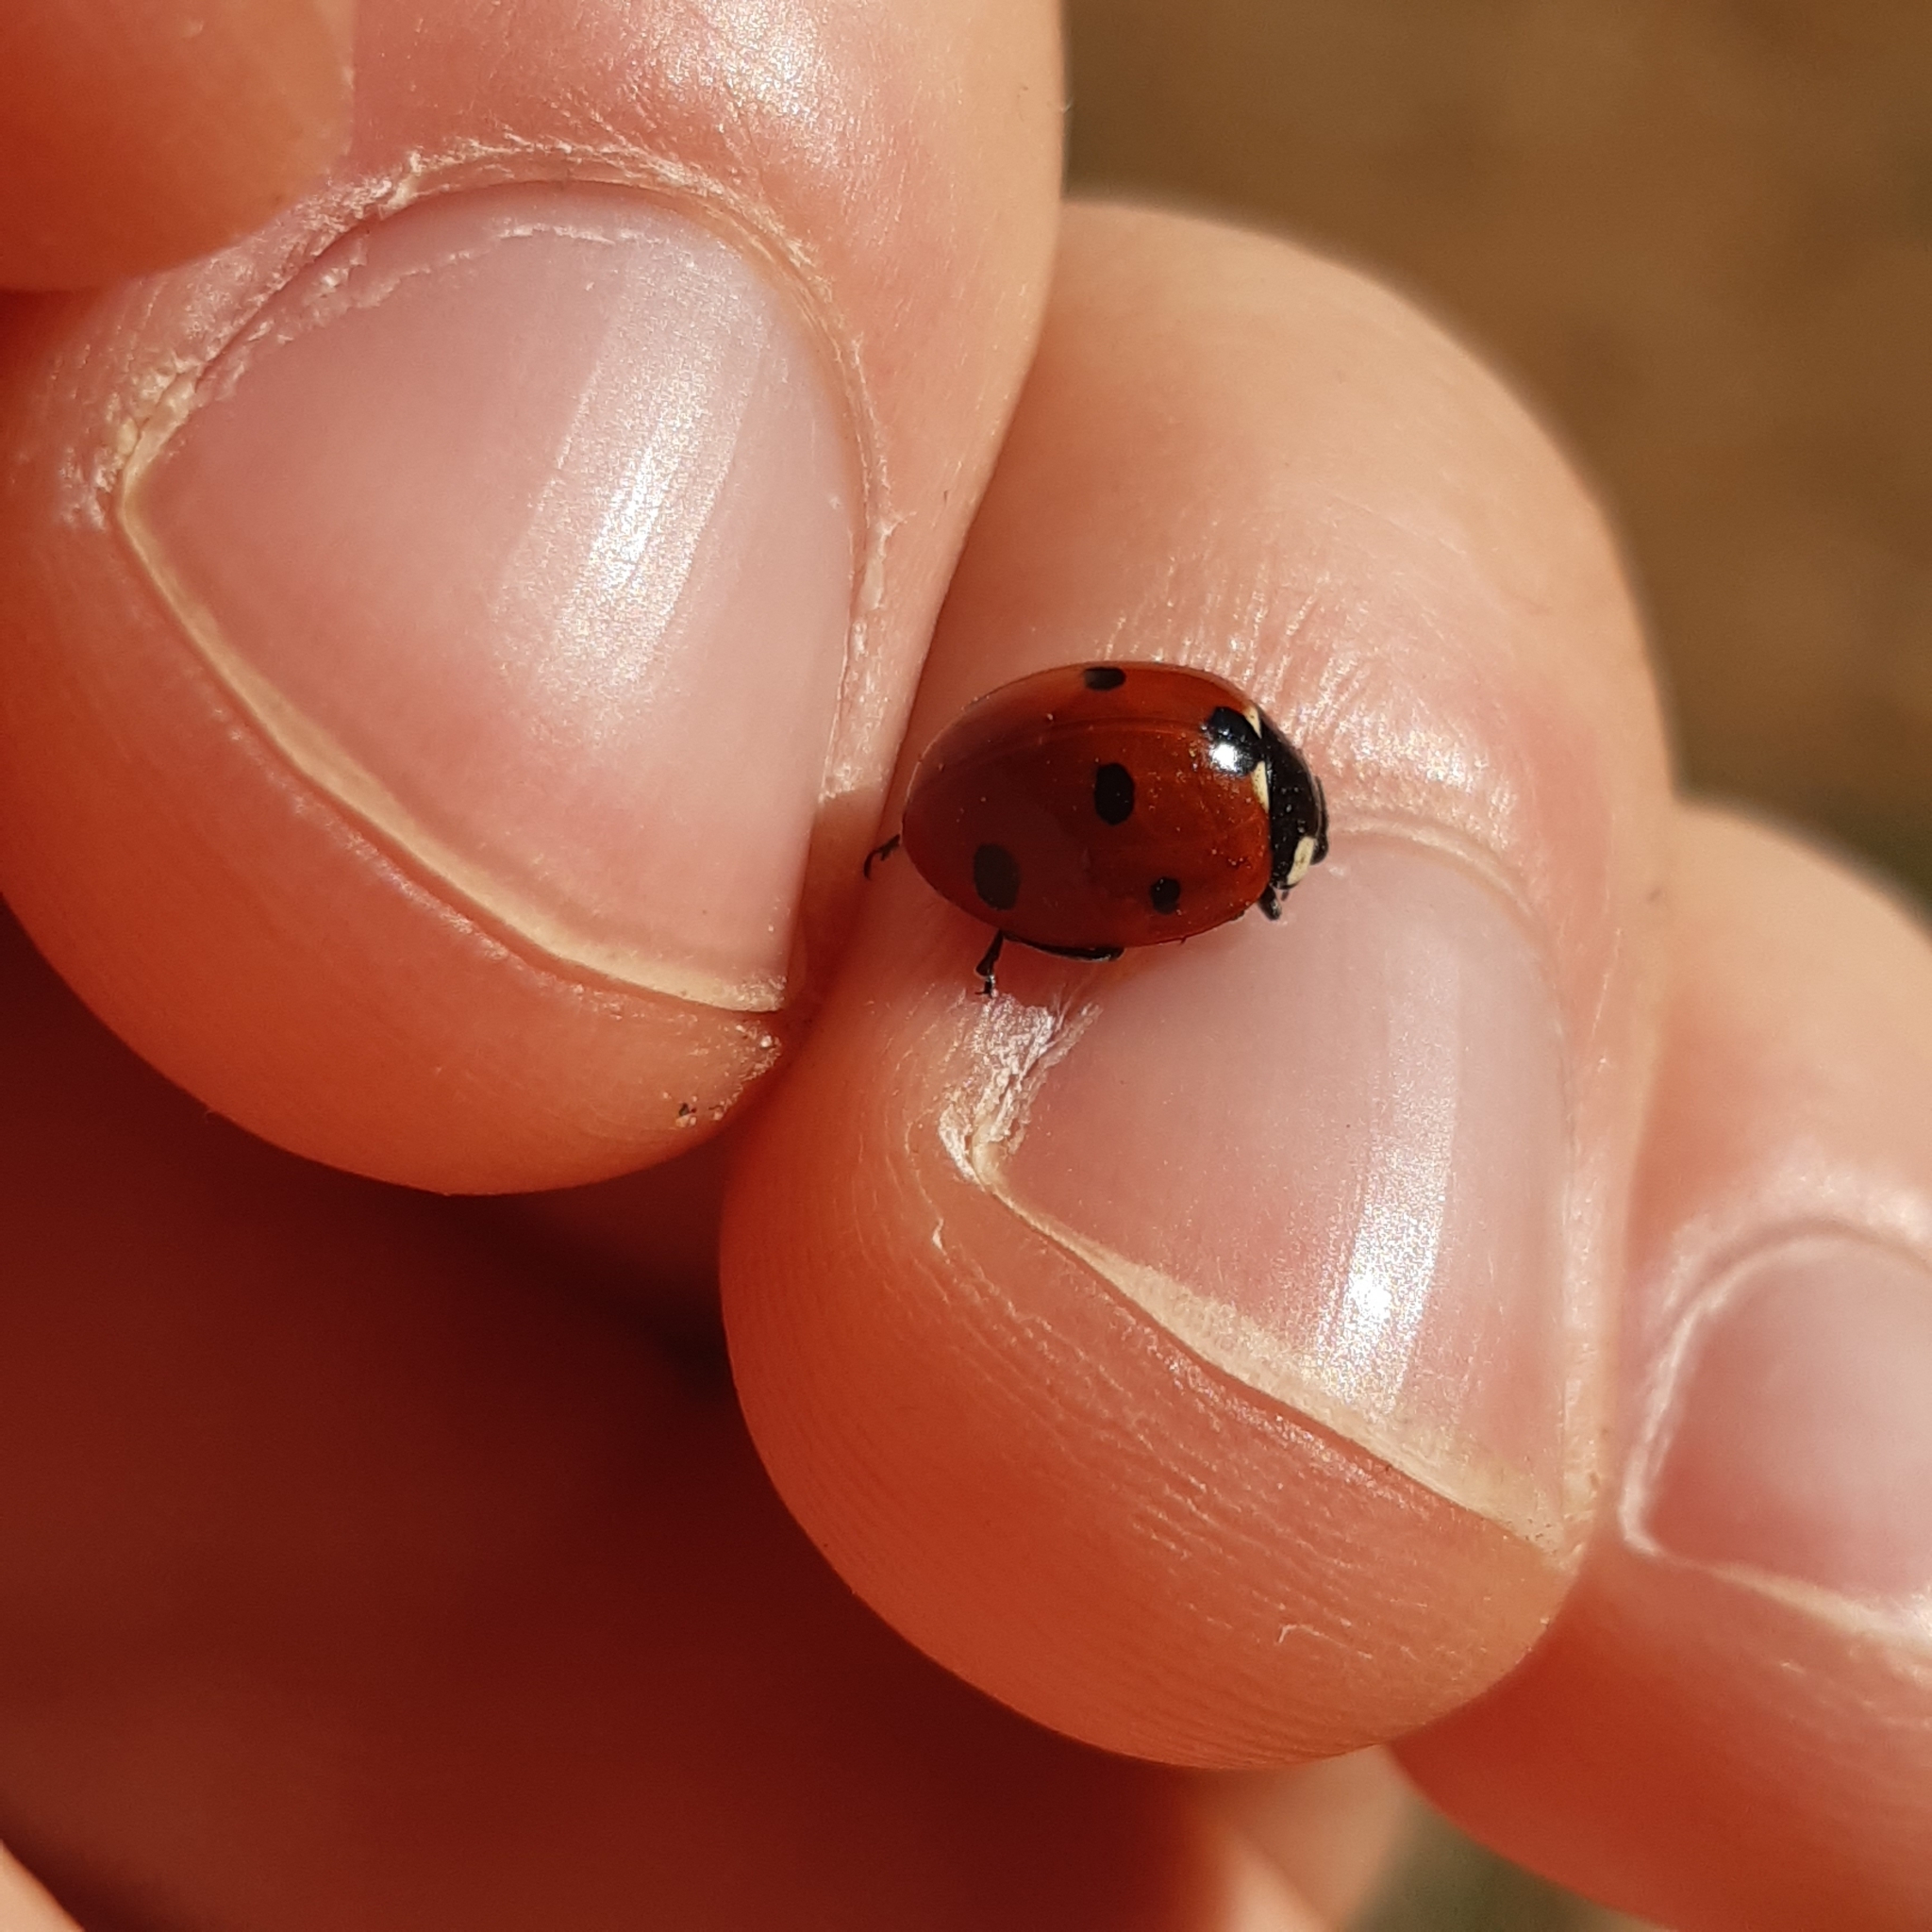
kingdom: Animalia
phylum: Arthropoda
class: Insecta
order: Coleoptera
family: Coccinellidae
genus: Coccinella
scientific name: Coccinella septempunctata
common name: Sevenspotted lady beetle
